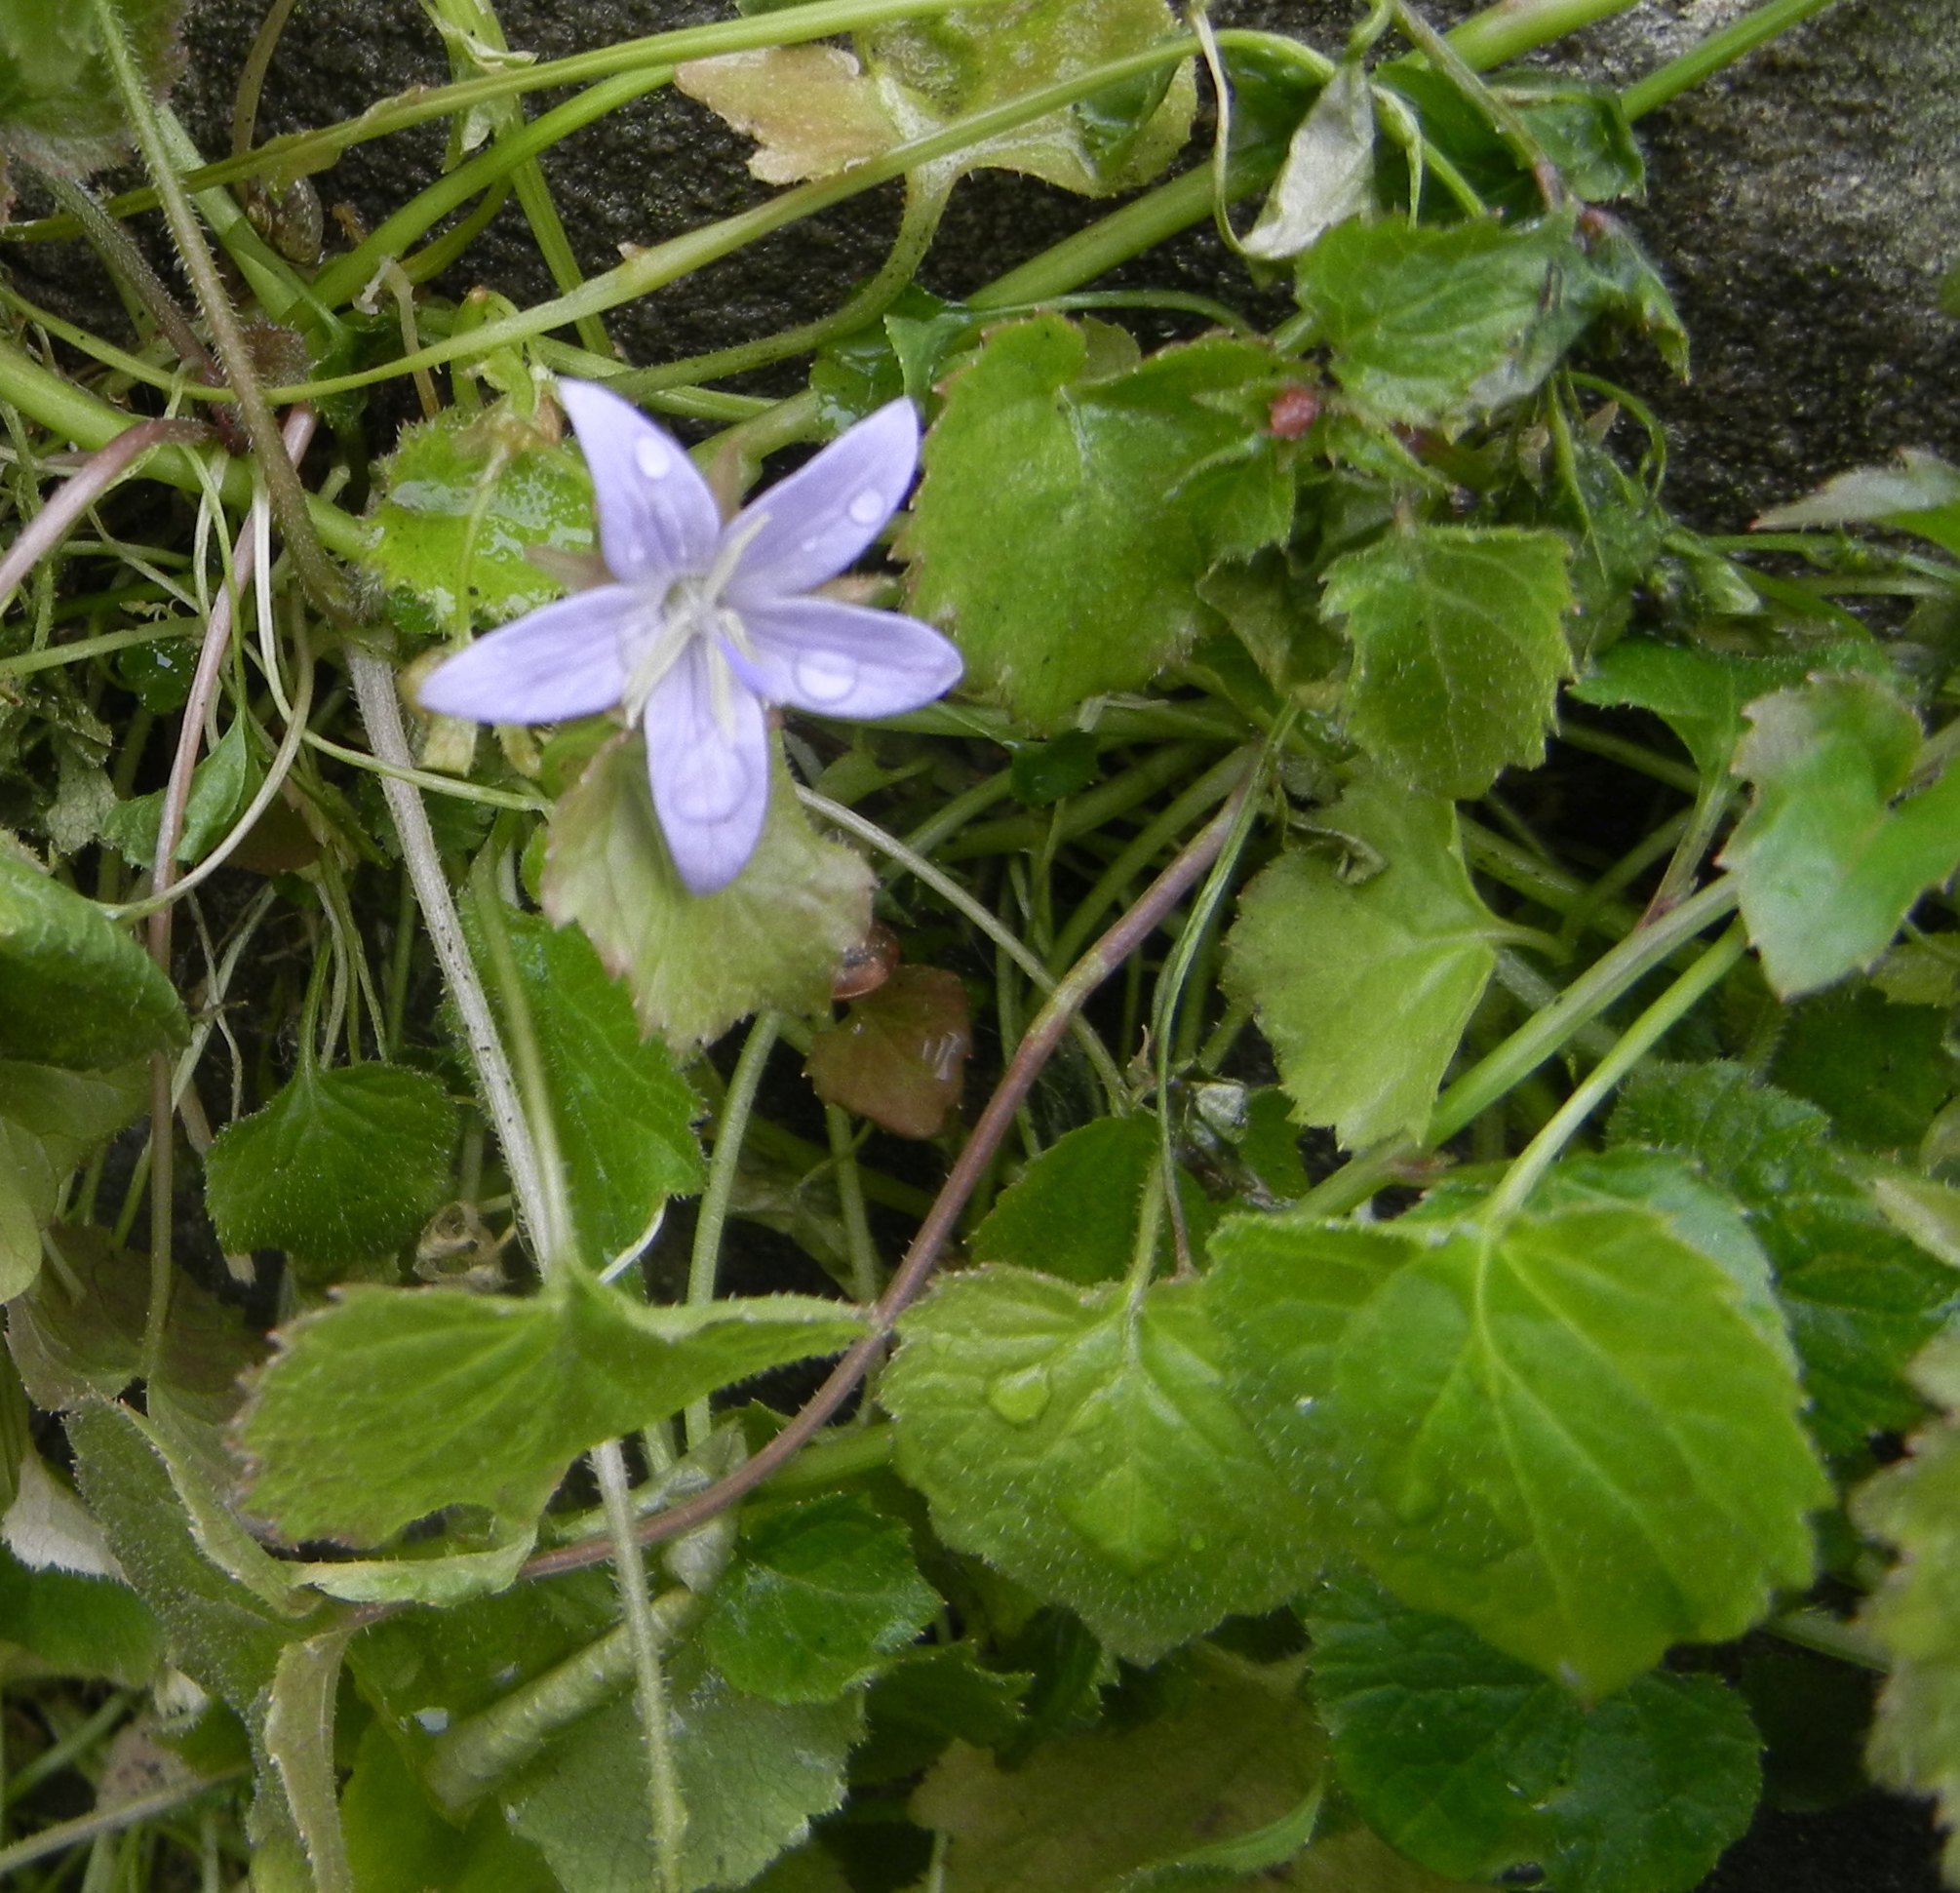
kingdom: Plantae
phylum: Tracheophyta
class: Magnoliopsida
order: Asterales
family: Campanulaceae
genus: Campanula
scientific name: Campanula poscharskyana
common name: Trailing bellflower
